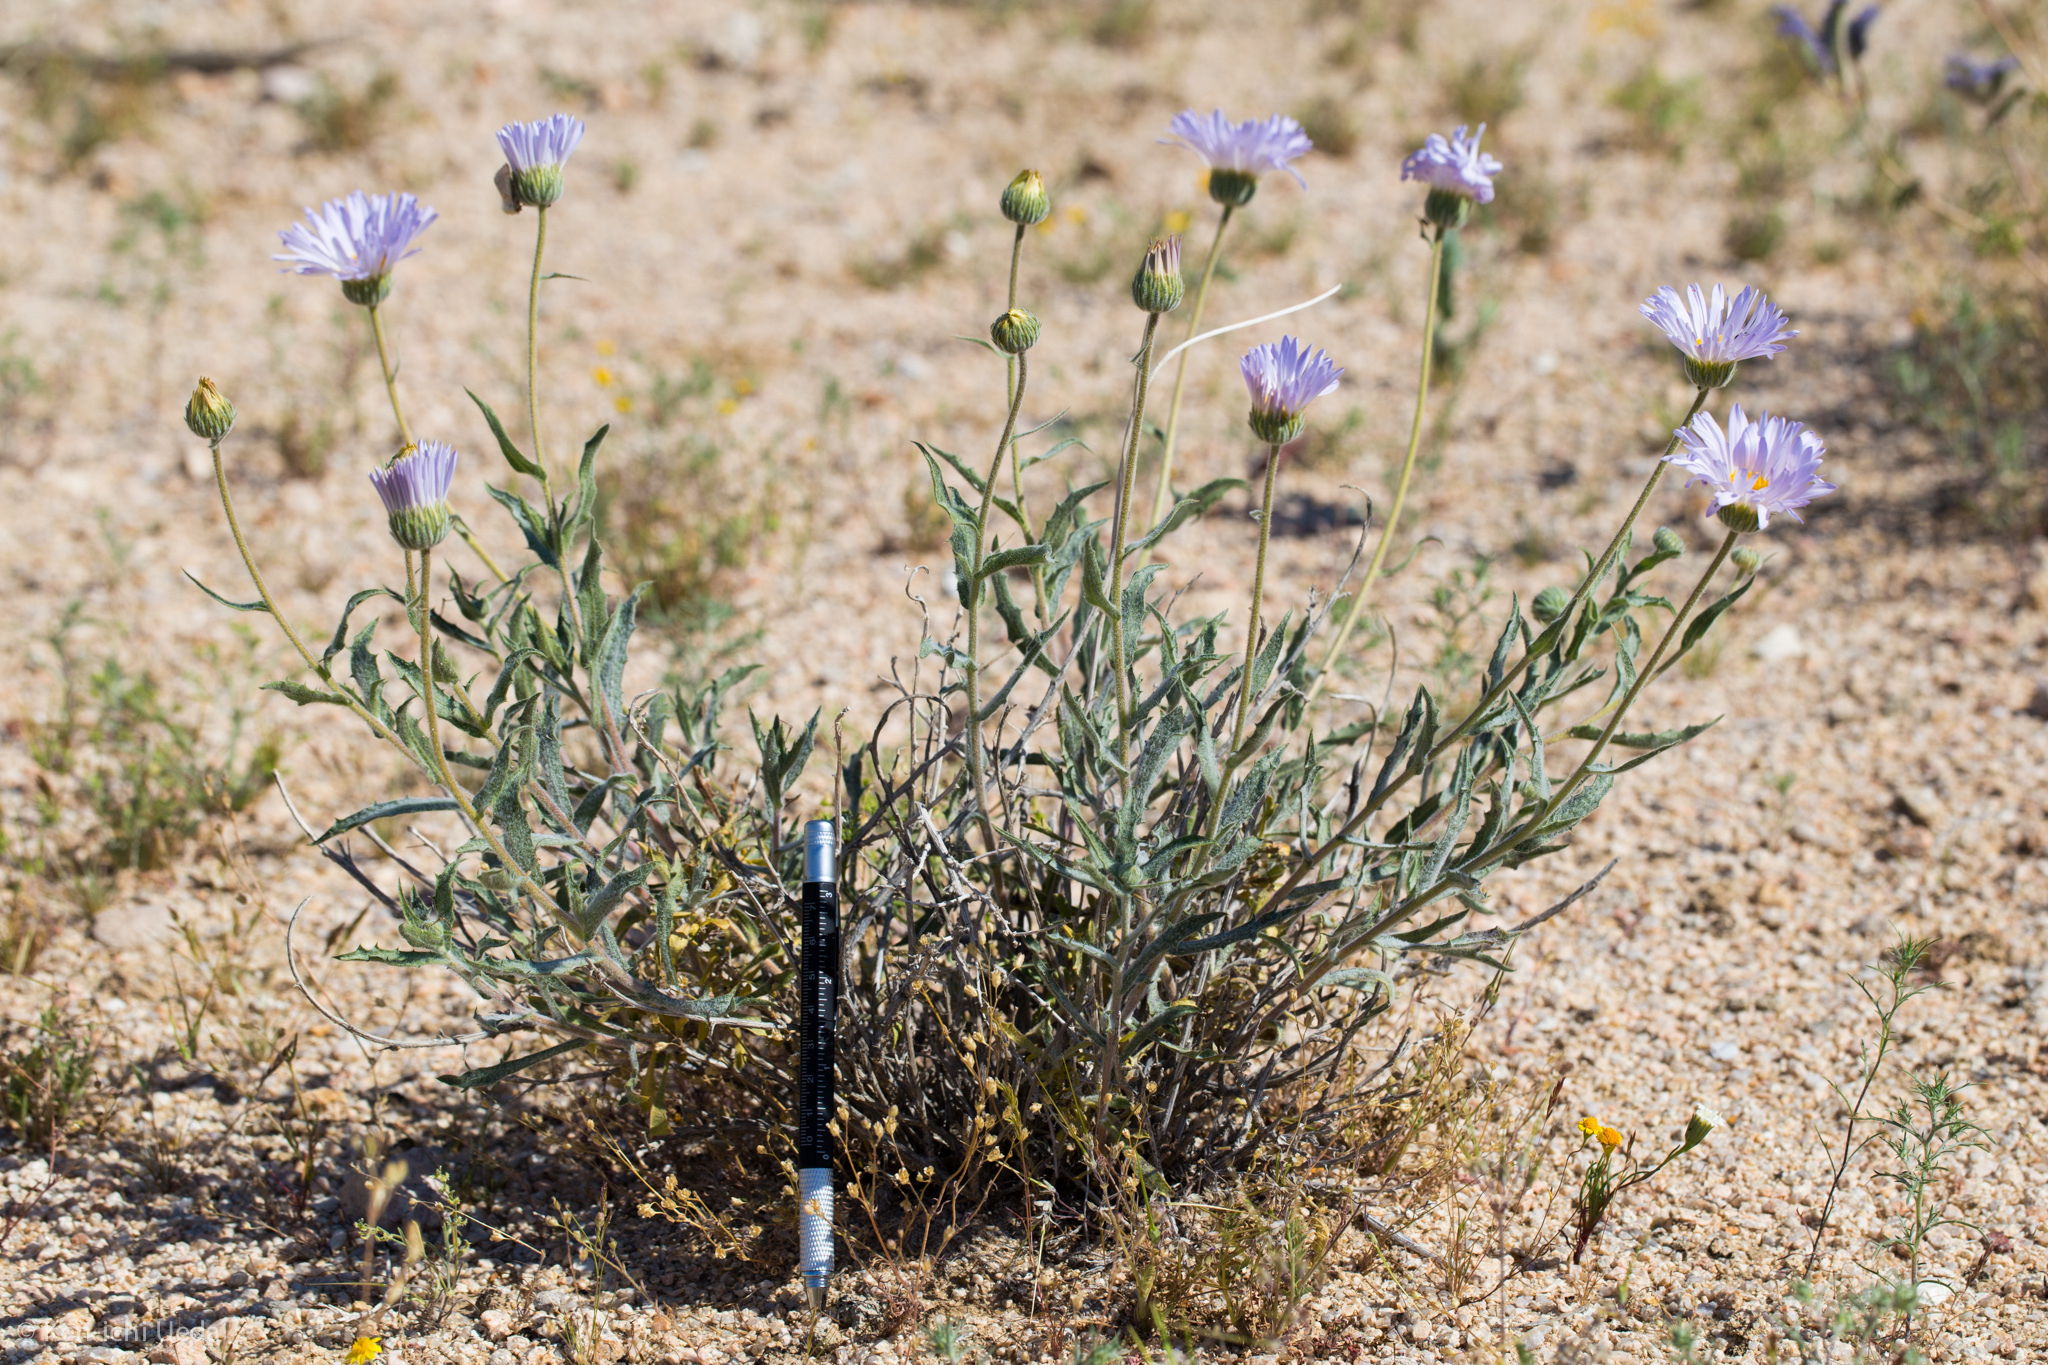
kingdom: Plantae
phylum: Tracheophyta
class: Magnoliopsida
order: Asterales
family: Asteraceae
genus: Xylorhiza
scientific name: Xylorhiza tortifolia
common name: Hurt-leaf woody-aster
